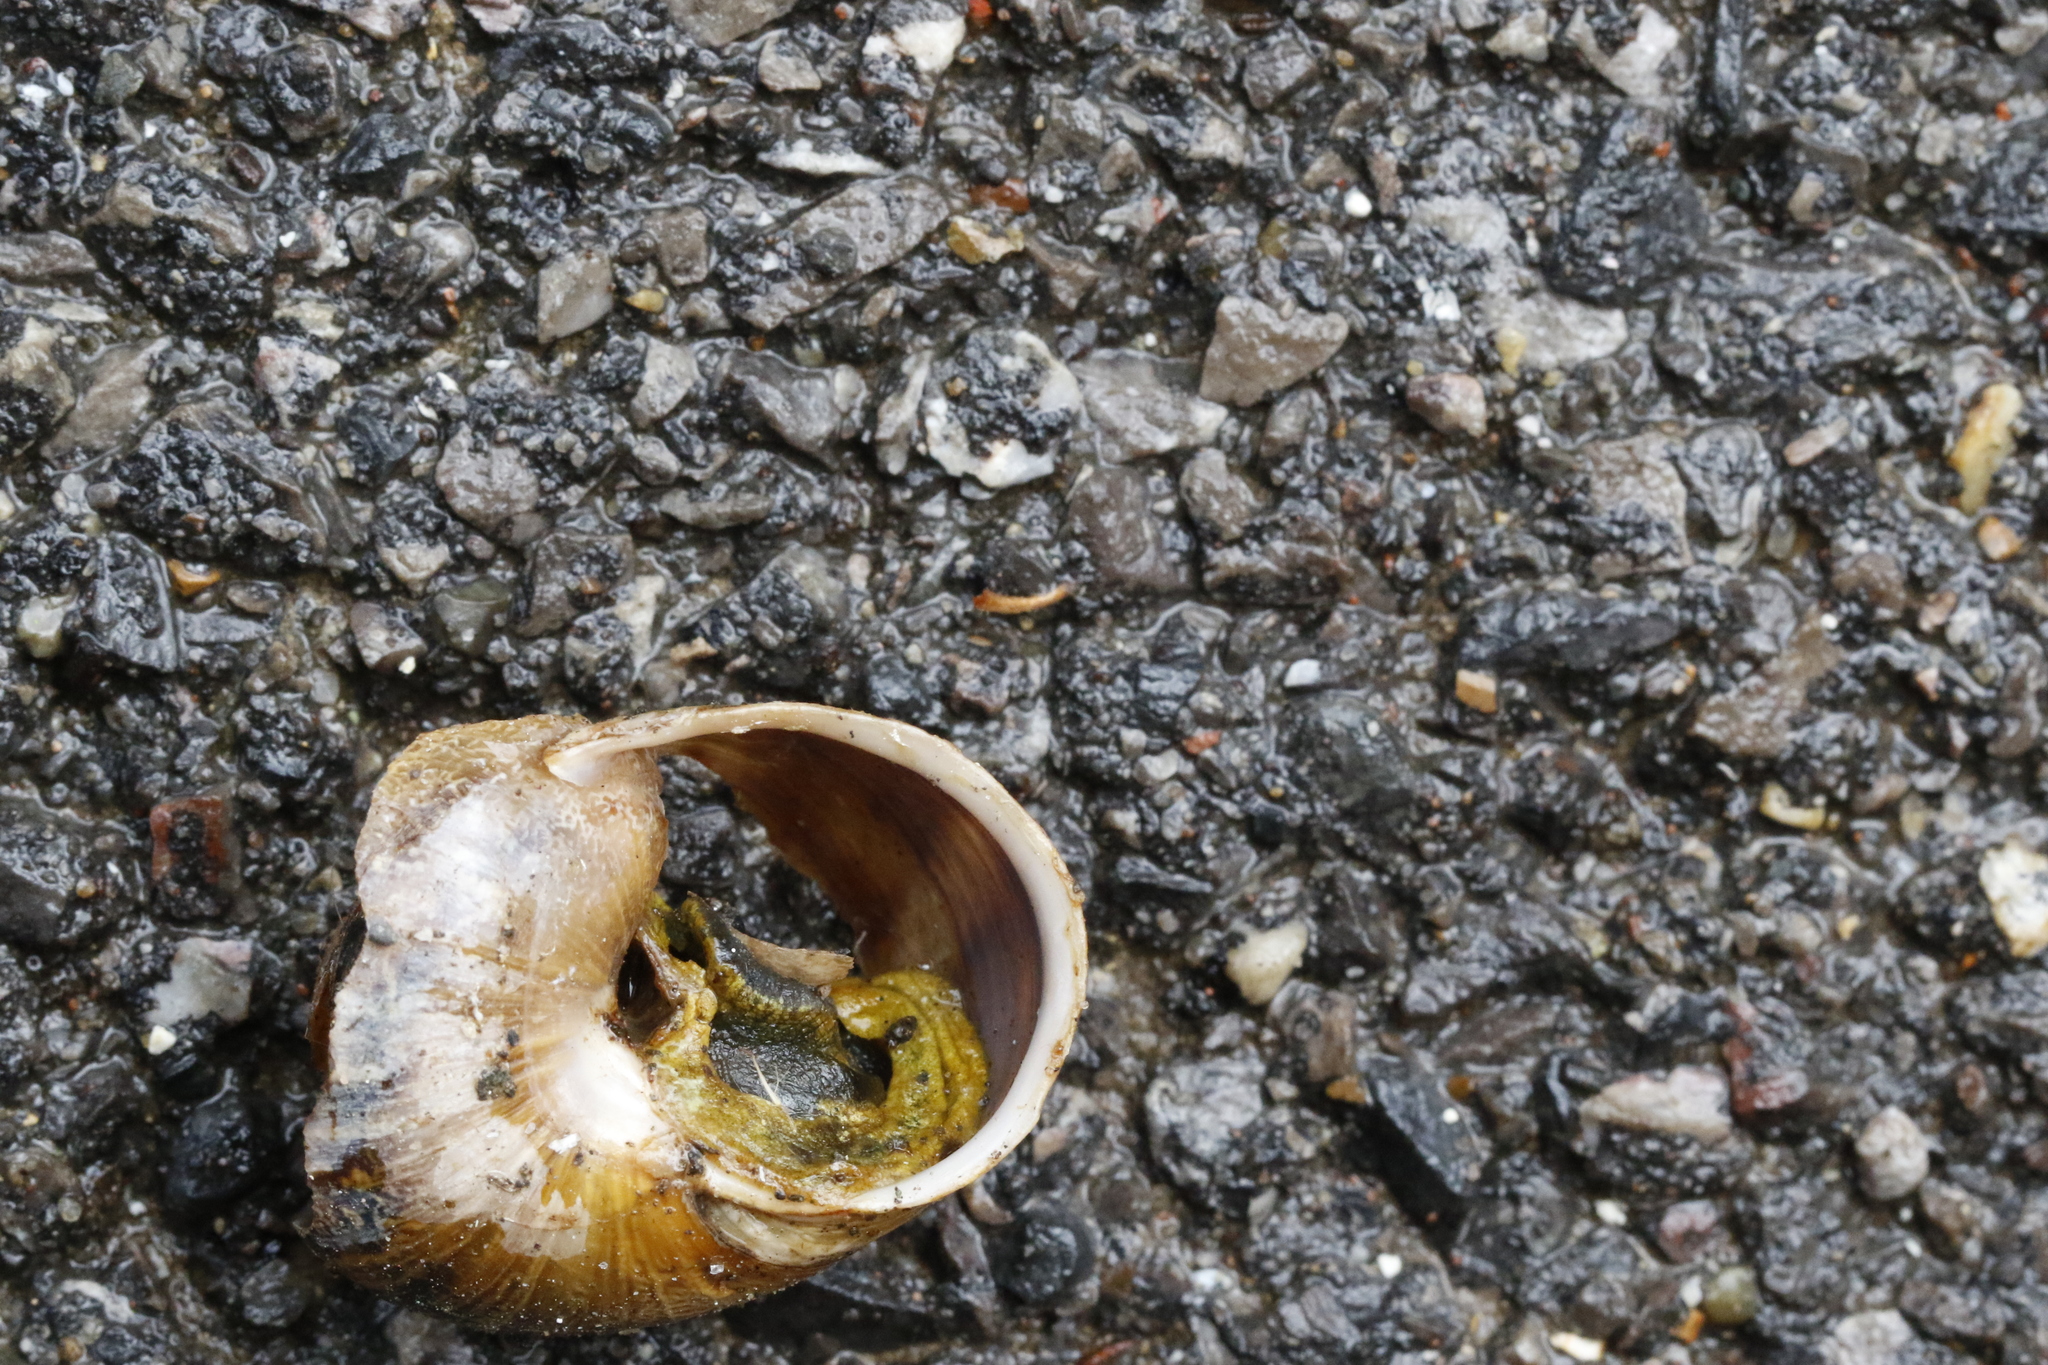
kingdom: Animalia
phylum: Mollusca
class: Gastropoda
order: Stylommatophora
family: Helicidae
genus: Cornu
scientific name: Cornu aspersum
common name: Brown garden snail
